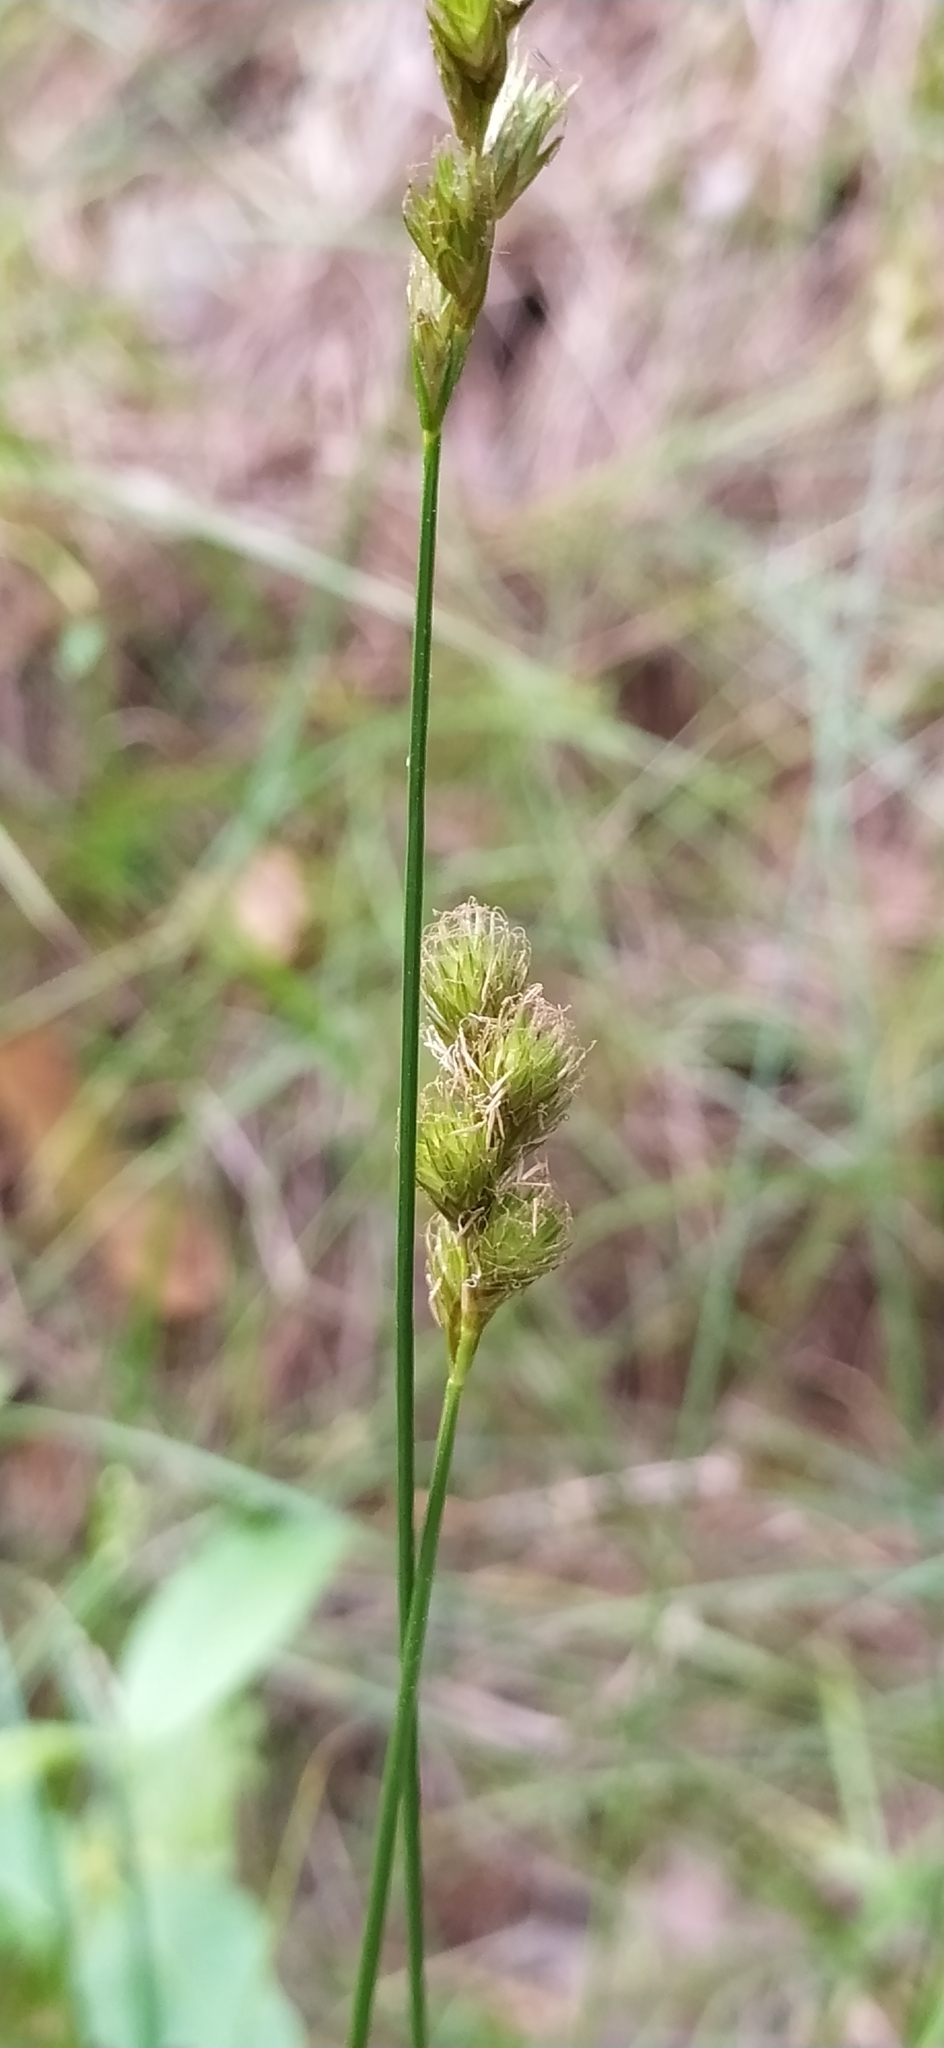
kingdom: Plantae
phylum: Tracheophyta
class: Liliopsida
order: Poales
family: Cyperaceae
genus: Carex
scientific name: Carex leporina
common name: Oval sedge
